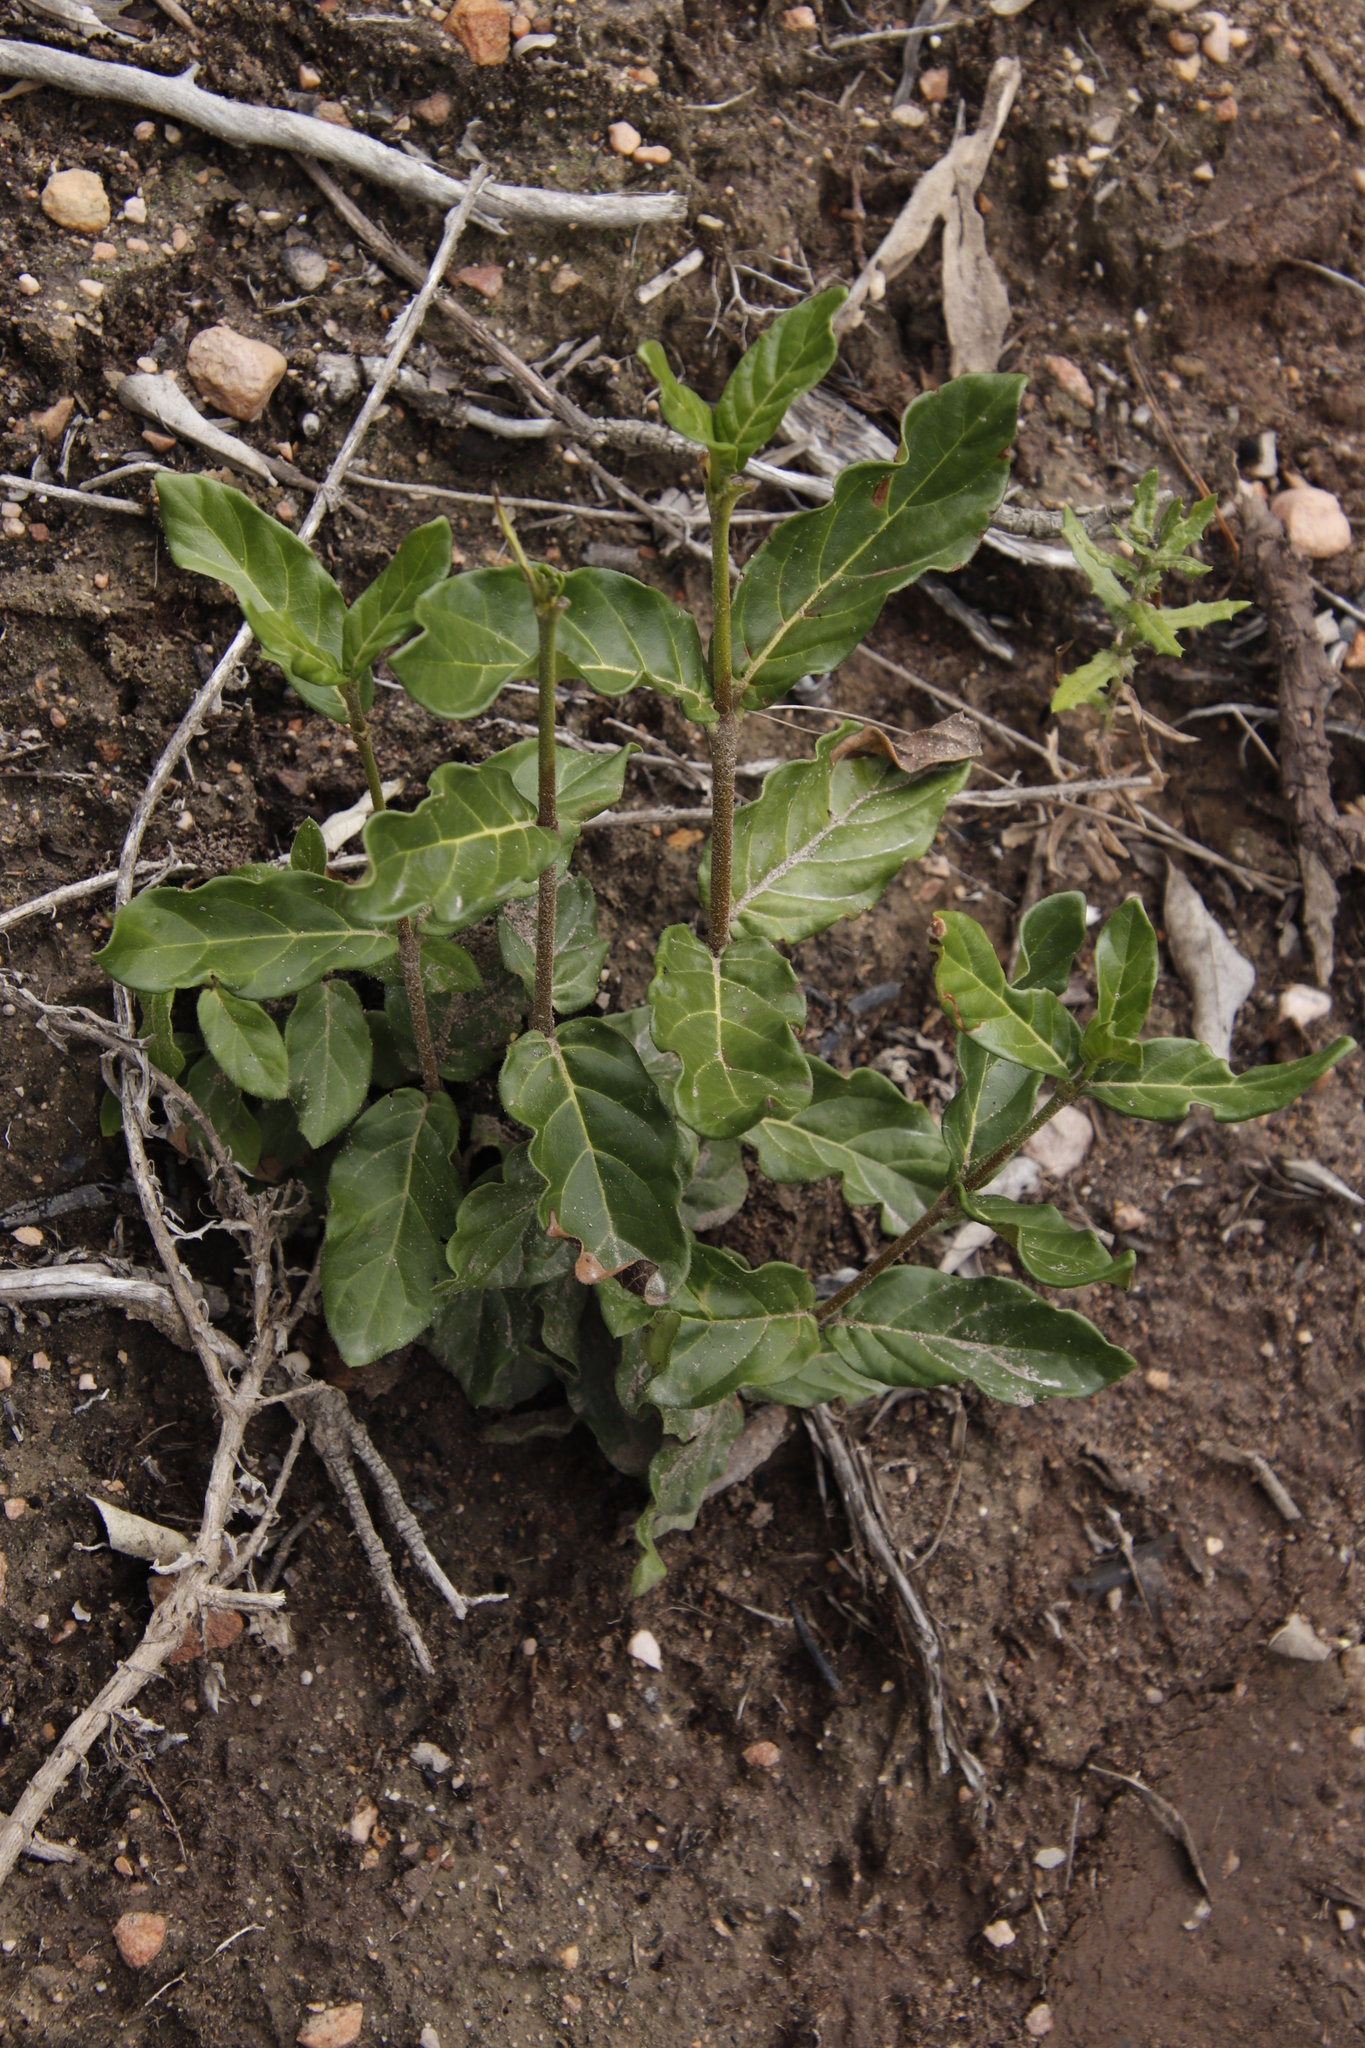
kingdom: Plantae
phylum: Tracheophyta
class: Magnoliopsida
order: Gentianales
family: Rubiaceae
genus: Burchellia
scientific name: Burchellia bubalina
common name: Wild pomegranate
